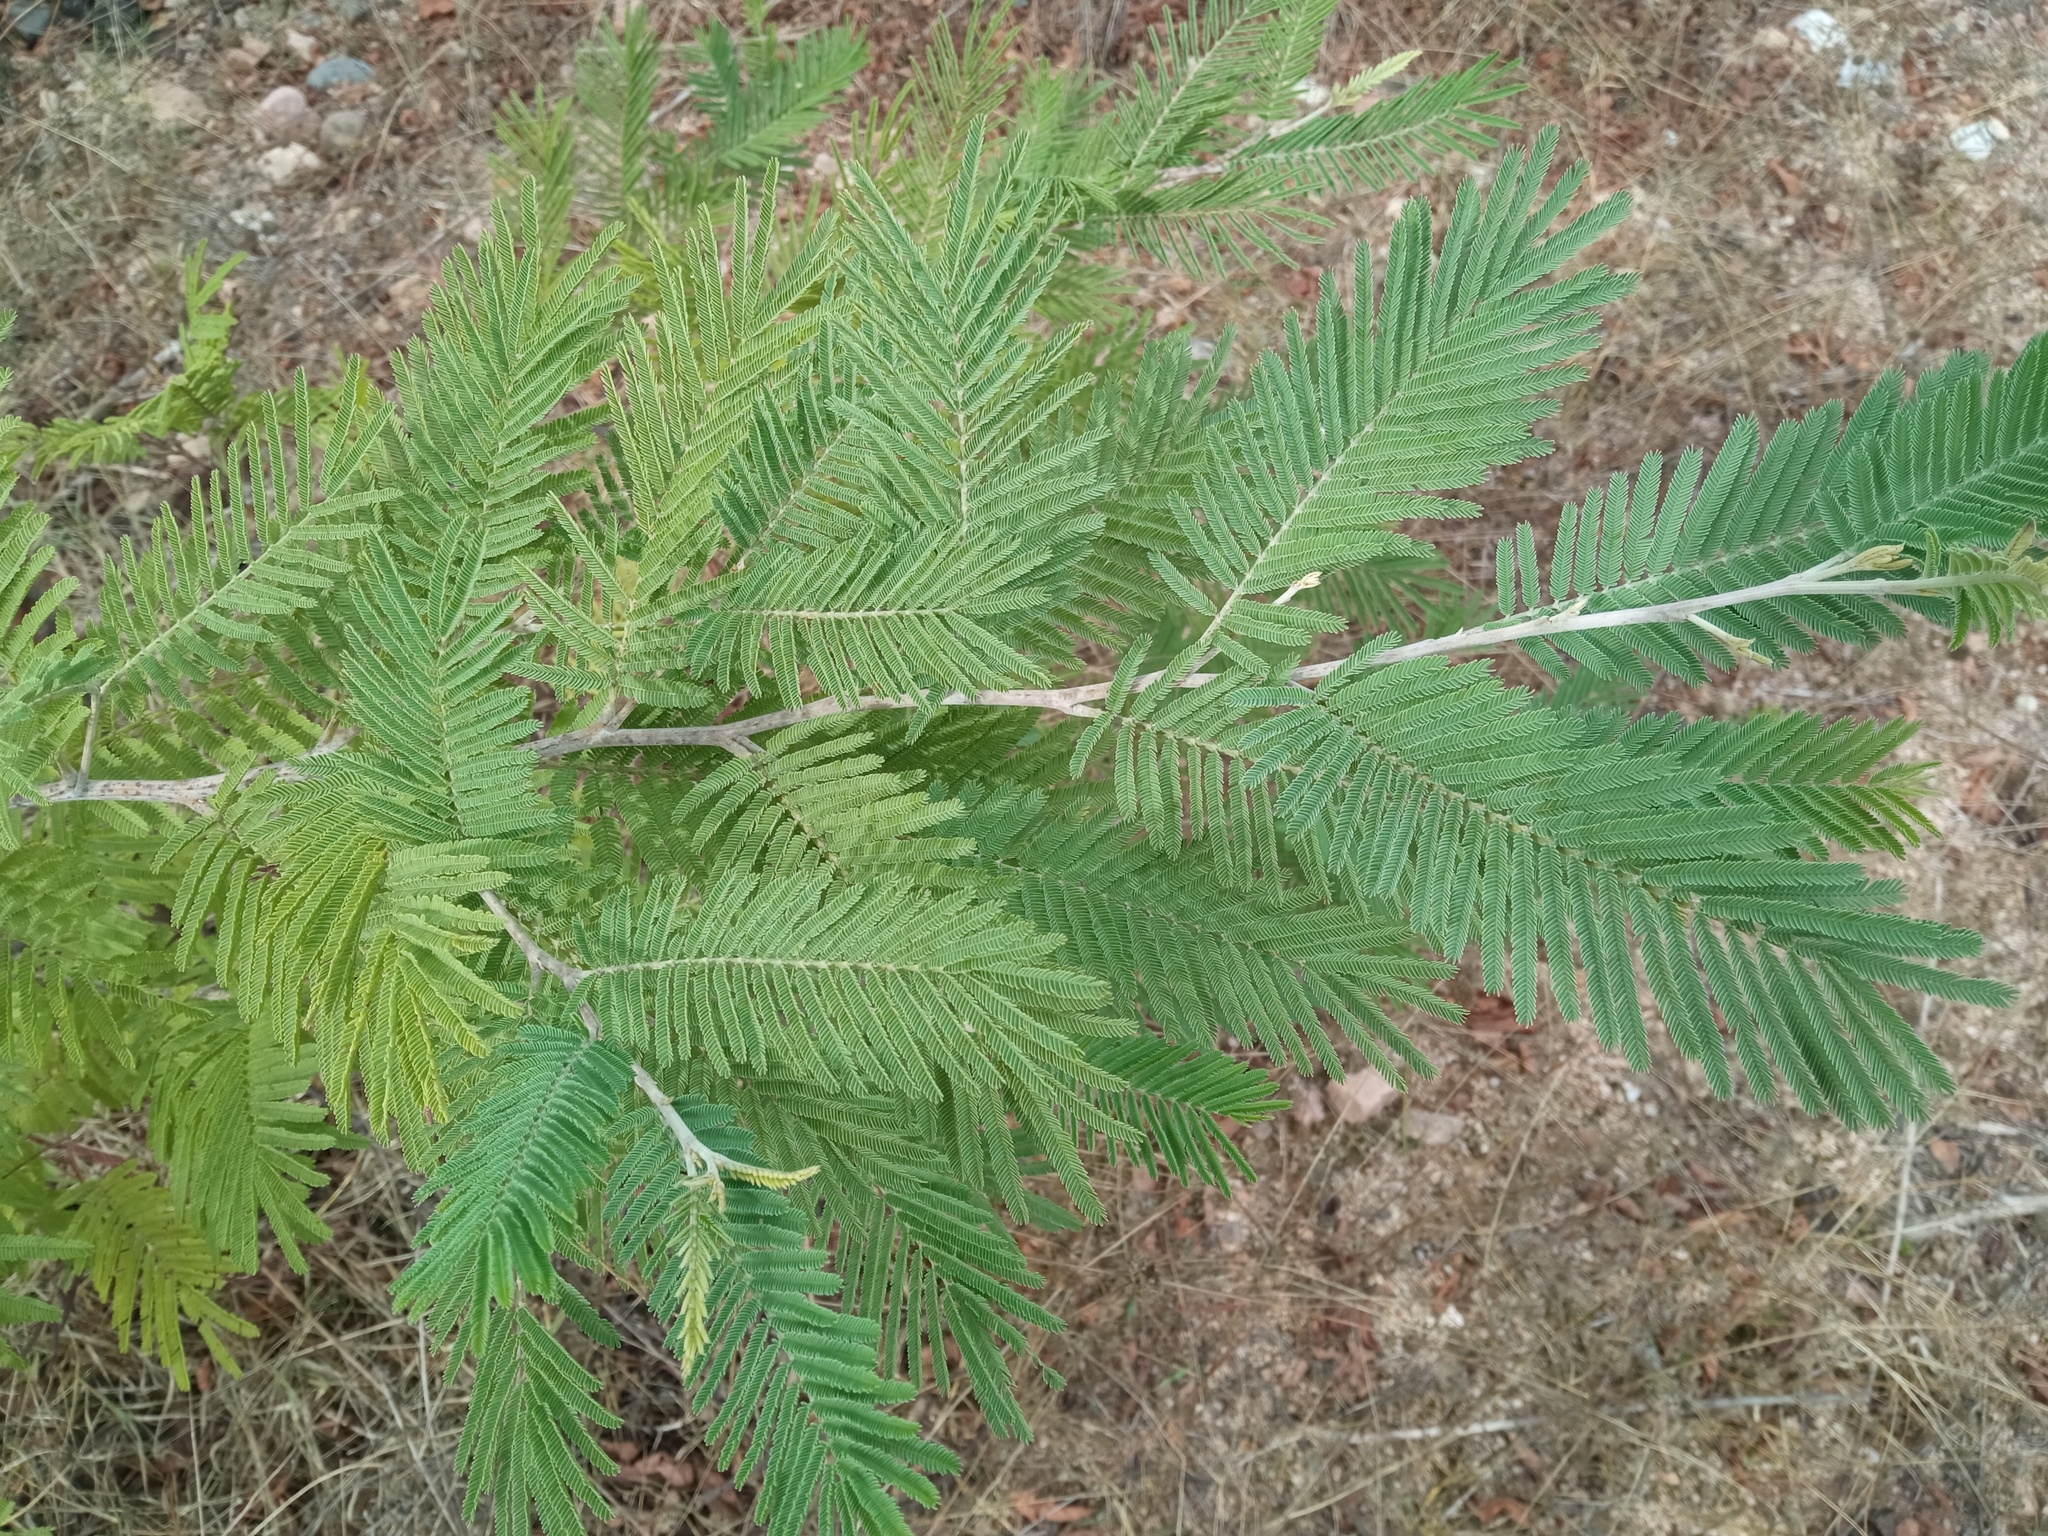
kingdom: Plantae
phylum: Tracheophyta
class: Magnoliopsida
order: Fabales
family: Fabaceae
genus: Acacia
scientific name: Acacia dealbata
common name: Silver wattle
